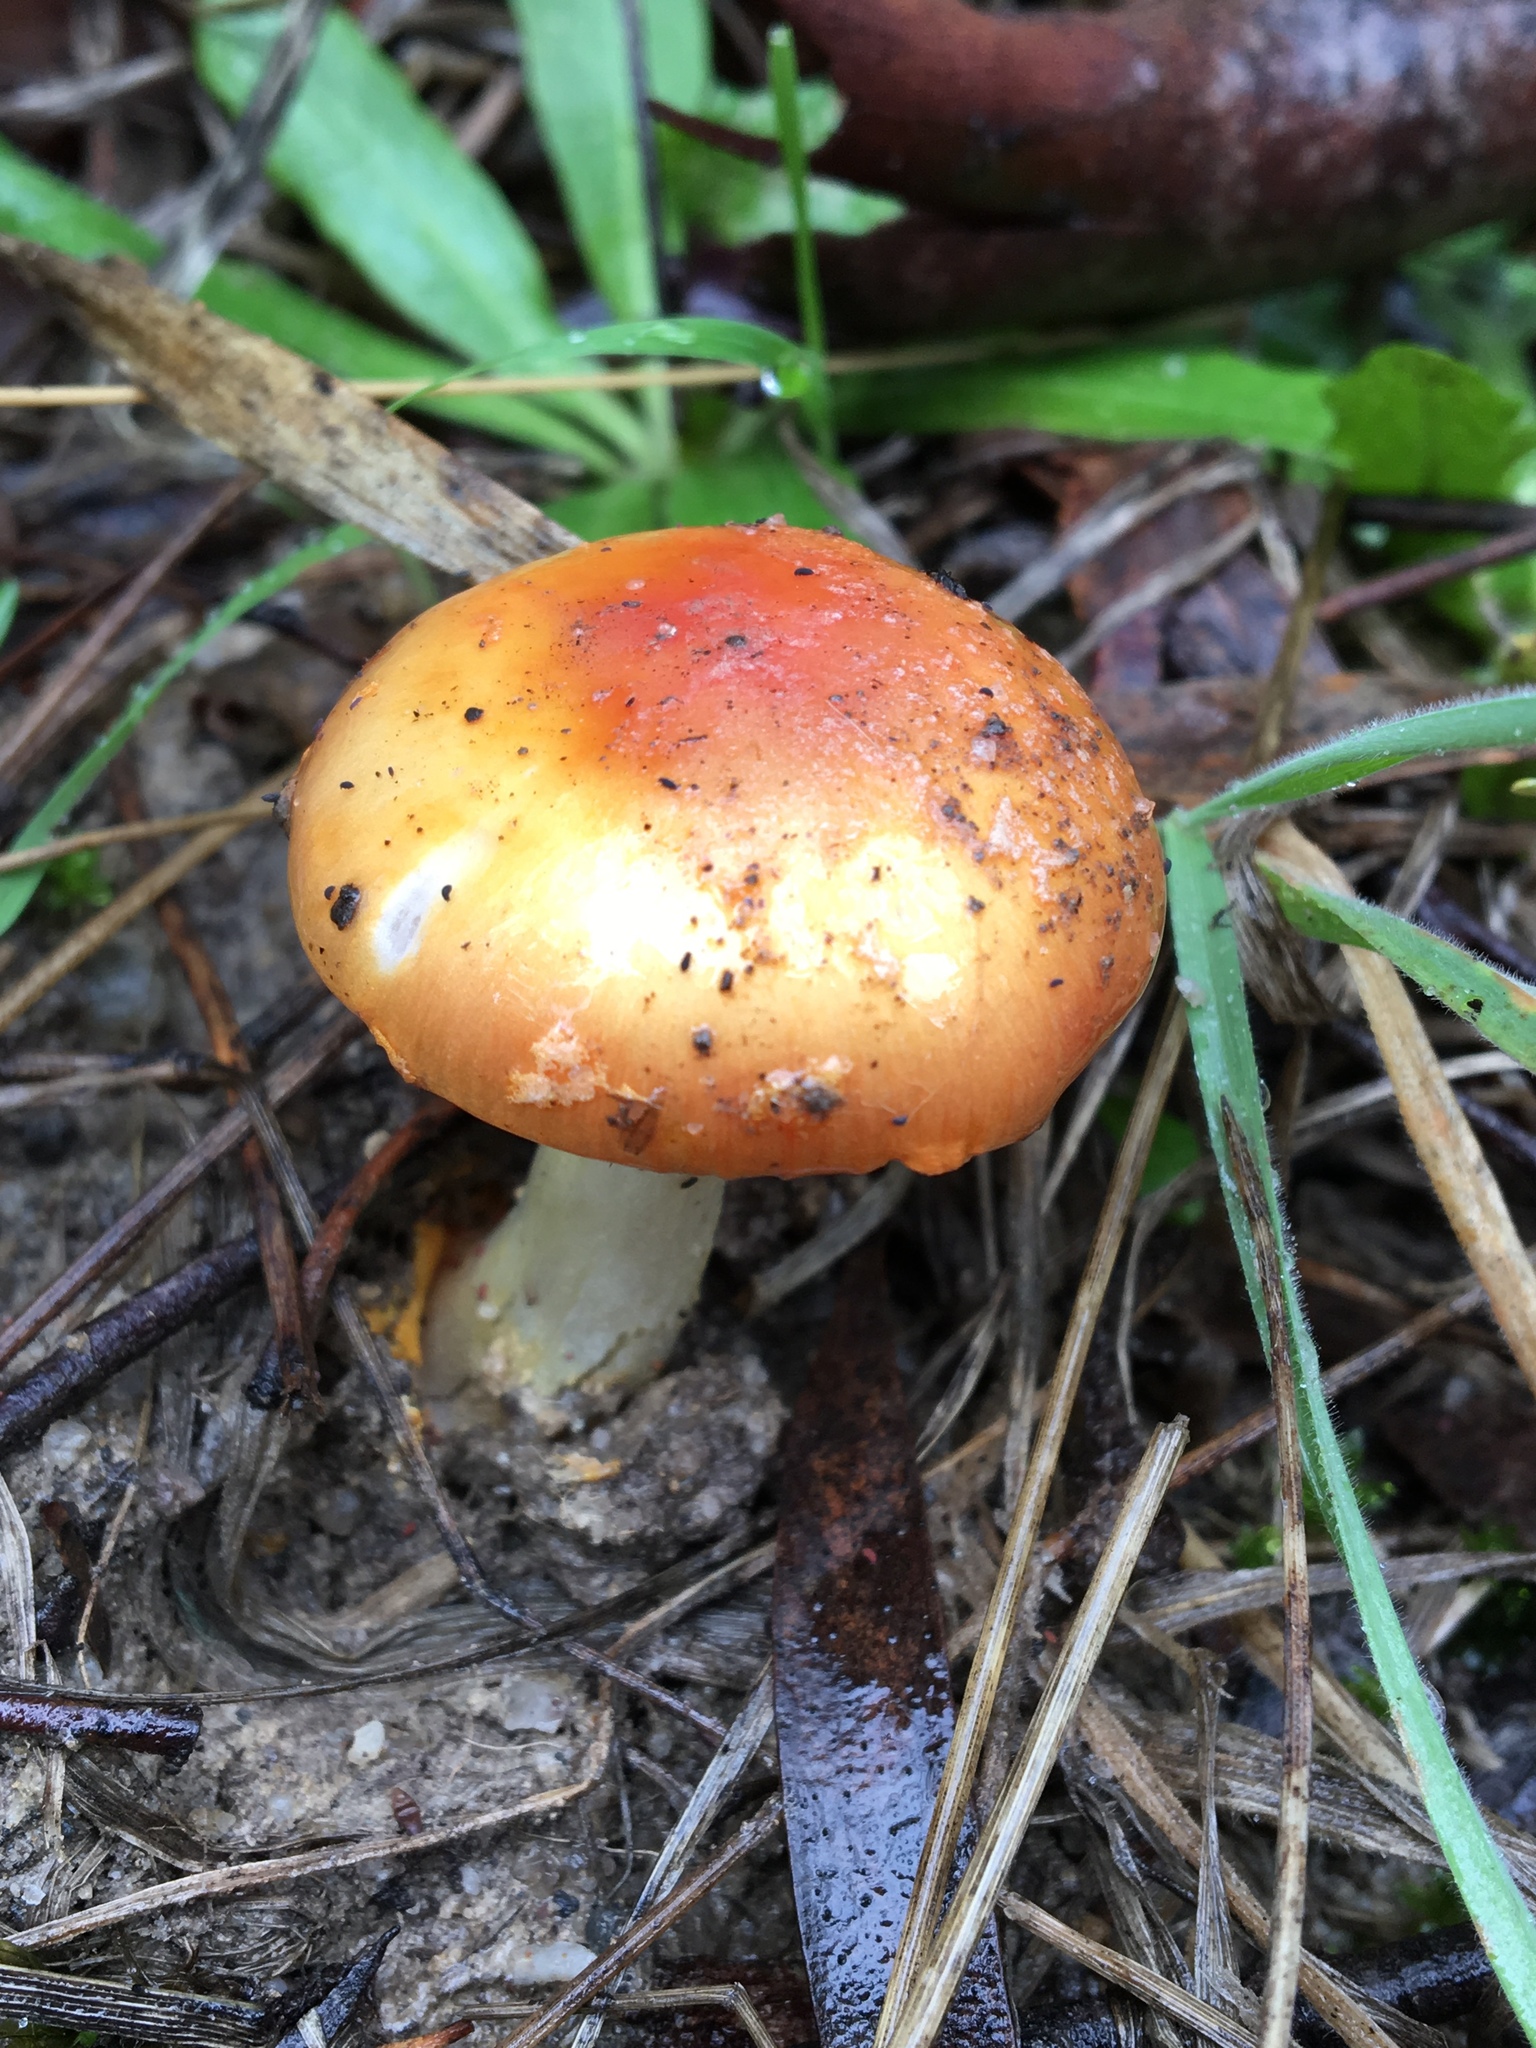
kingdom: Fungi
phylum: Basidiomycota
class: Agaricomycetes
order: Agaricales
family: Amanitaceae
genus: Amanita
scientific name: Amanita xanthocephala
